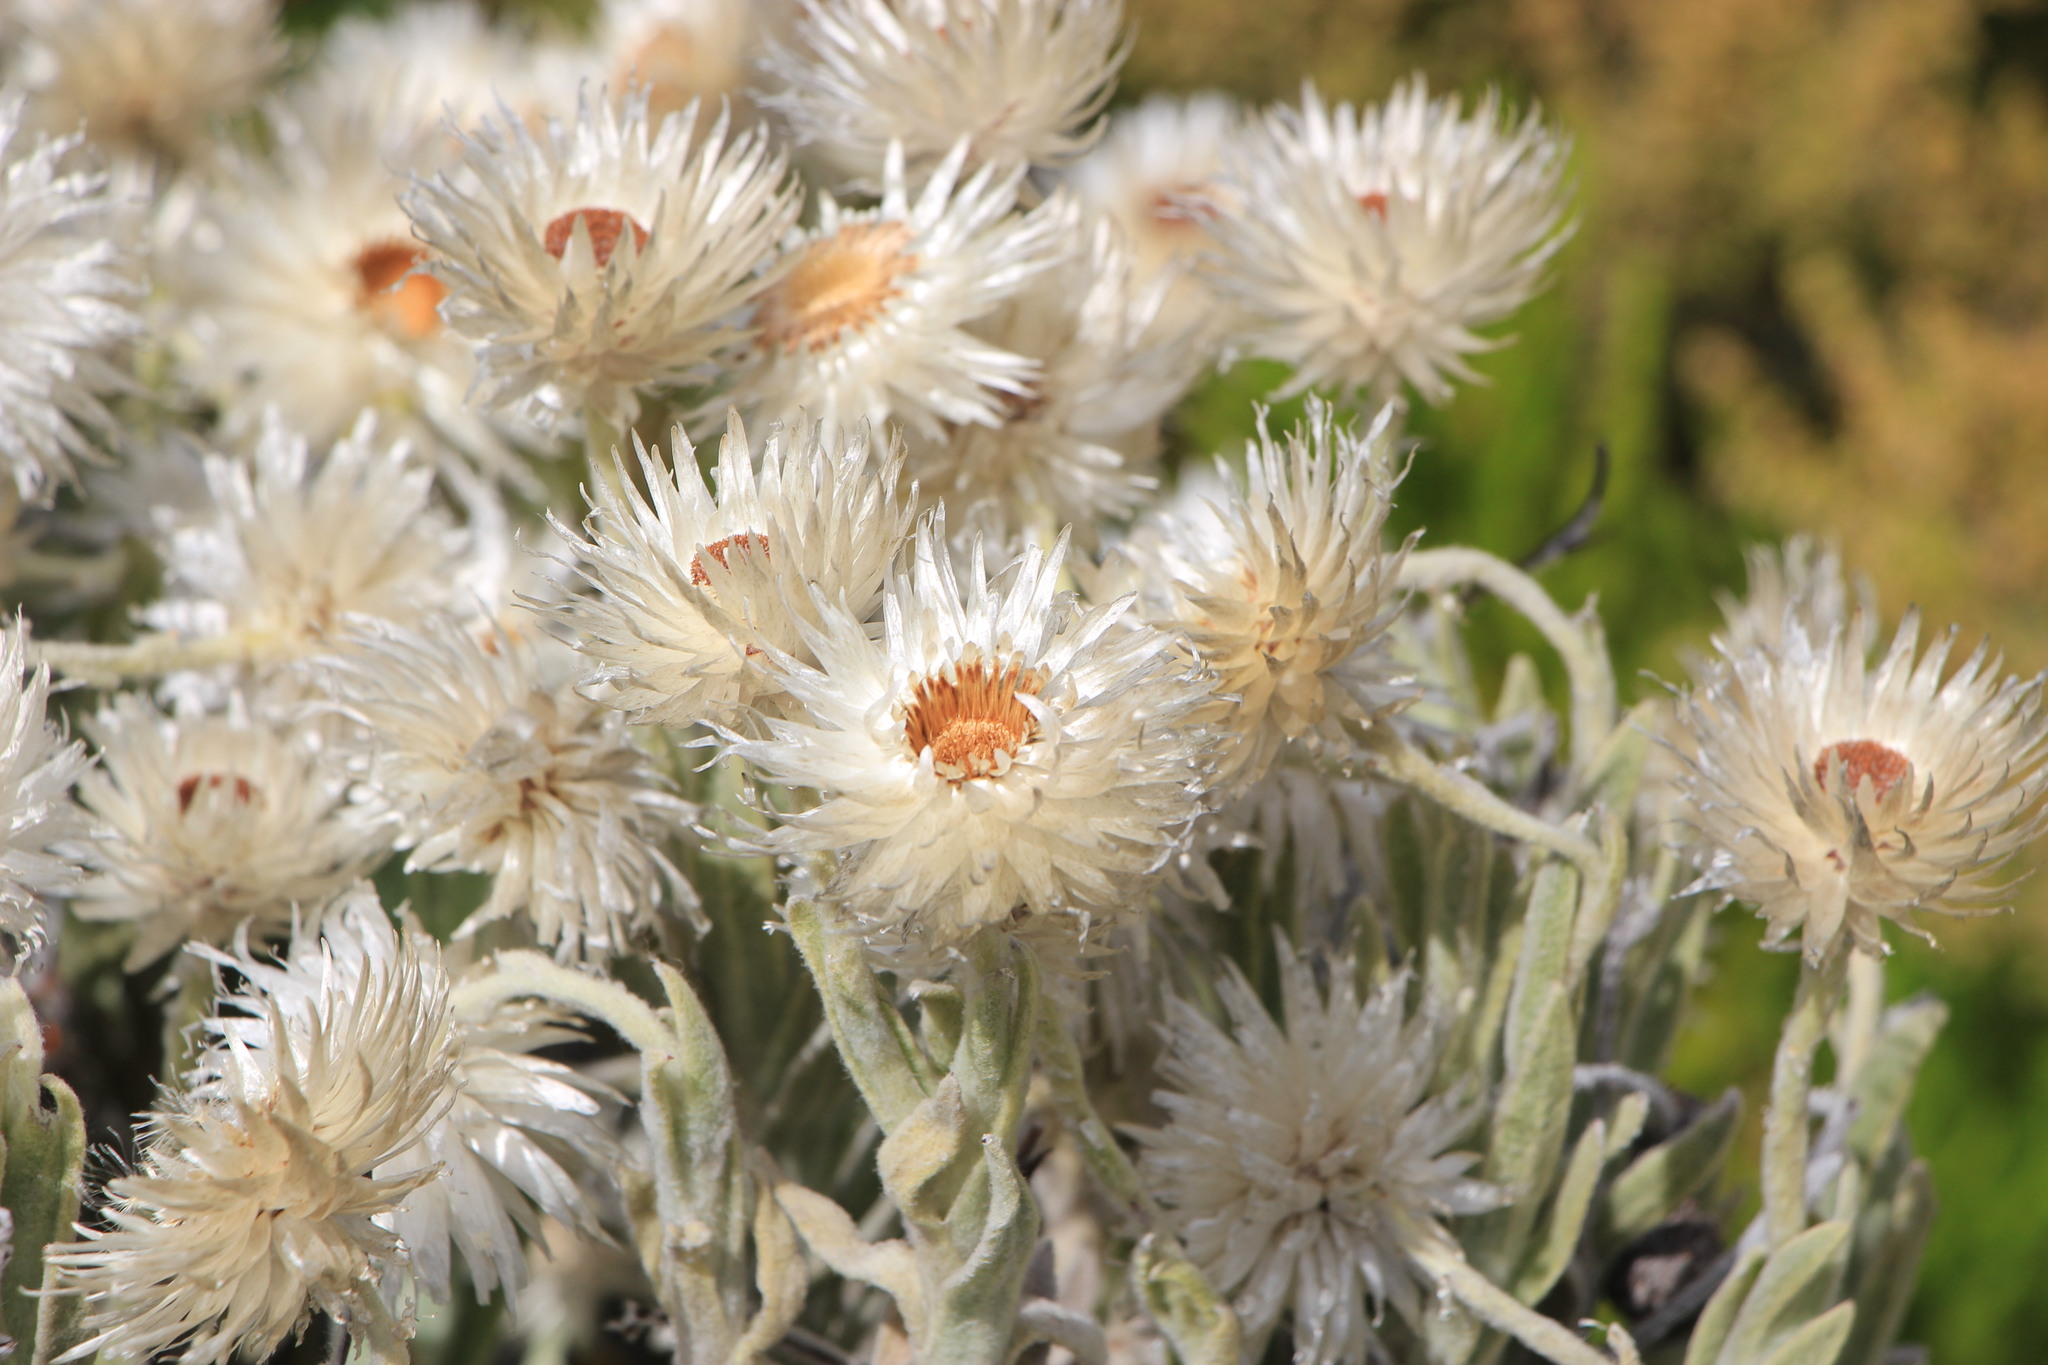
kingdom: Plantae
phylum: Tracheophyta
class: Magnoliopsida
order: Asterales
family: Asteraceae
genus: Syncarpha
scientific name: Syncarpha vestita
